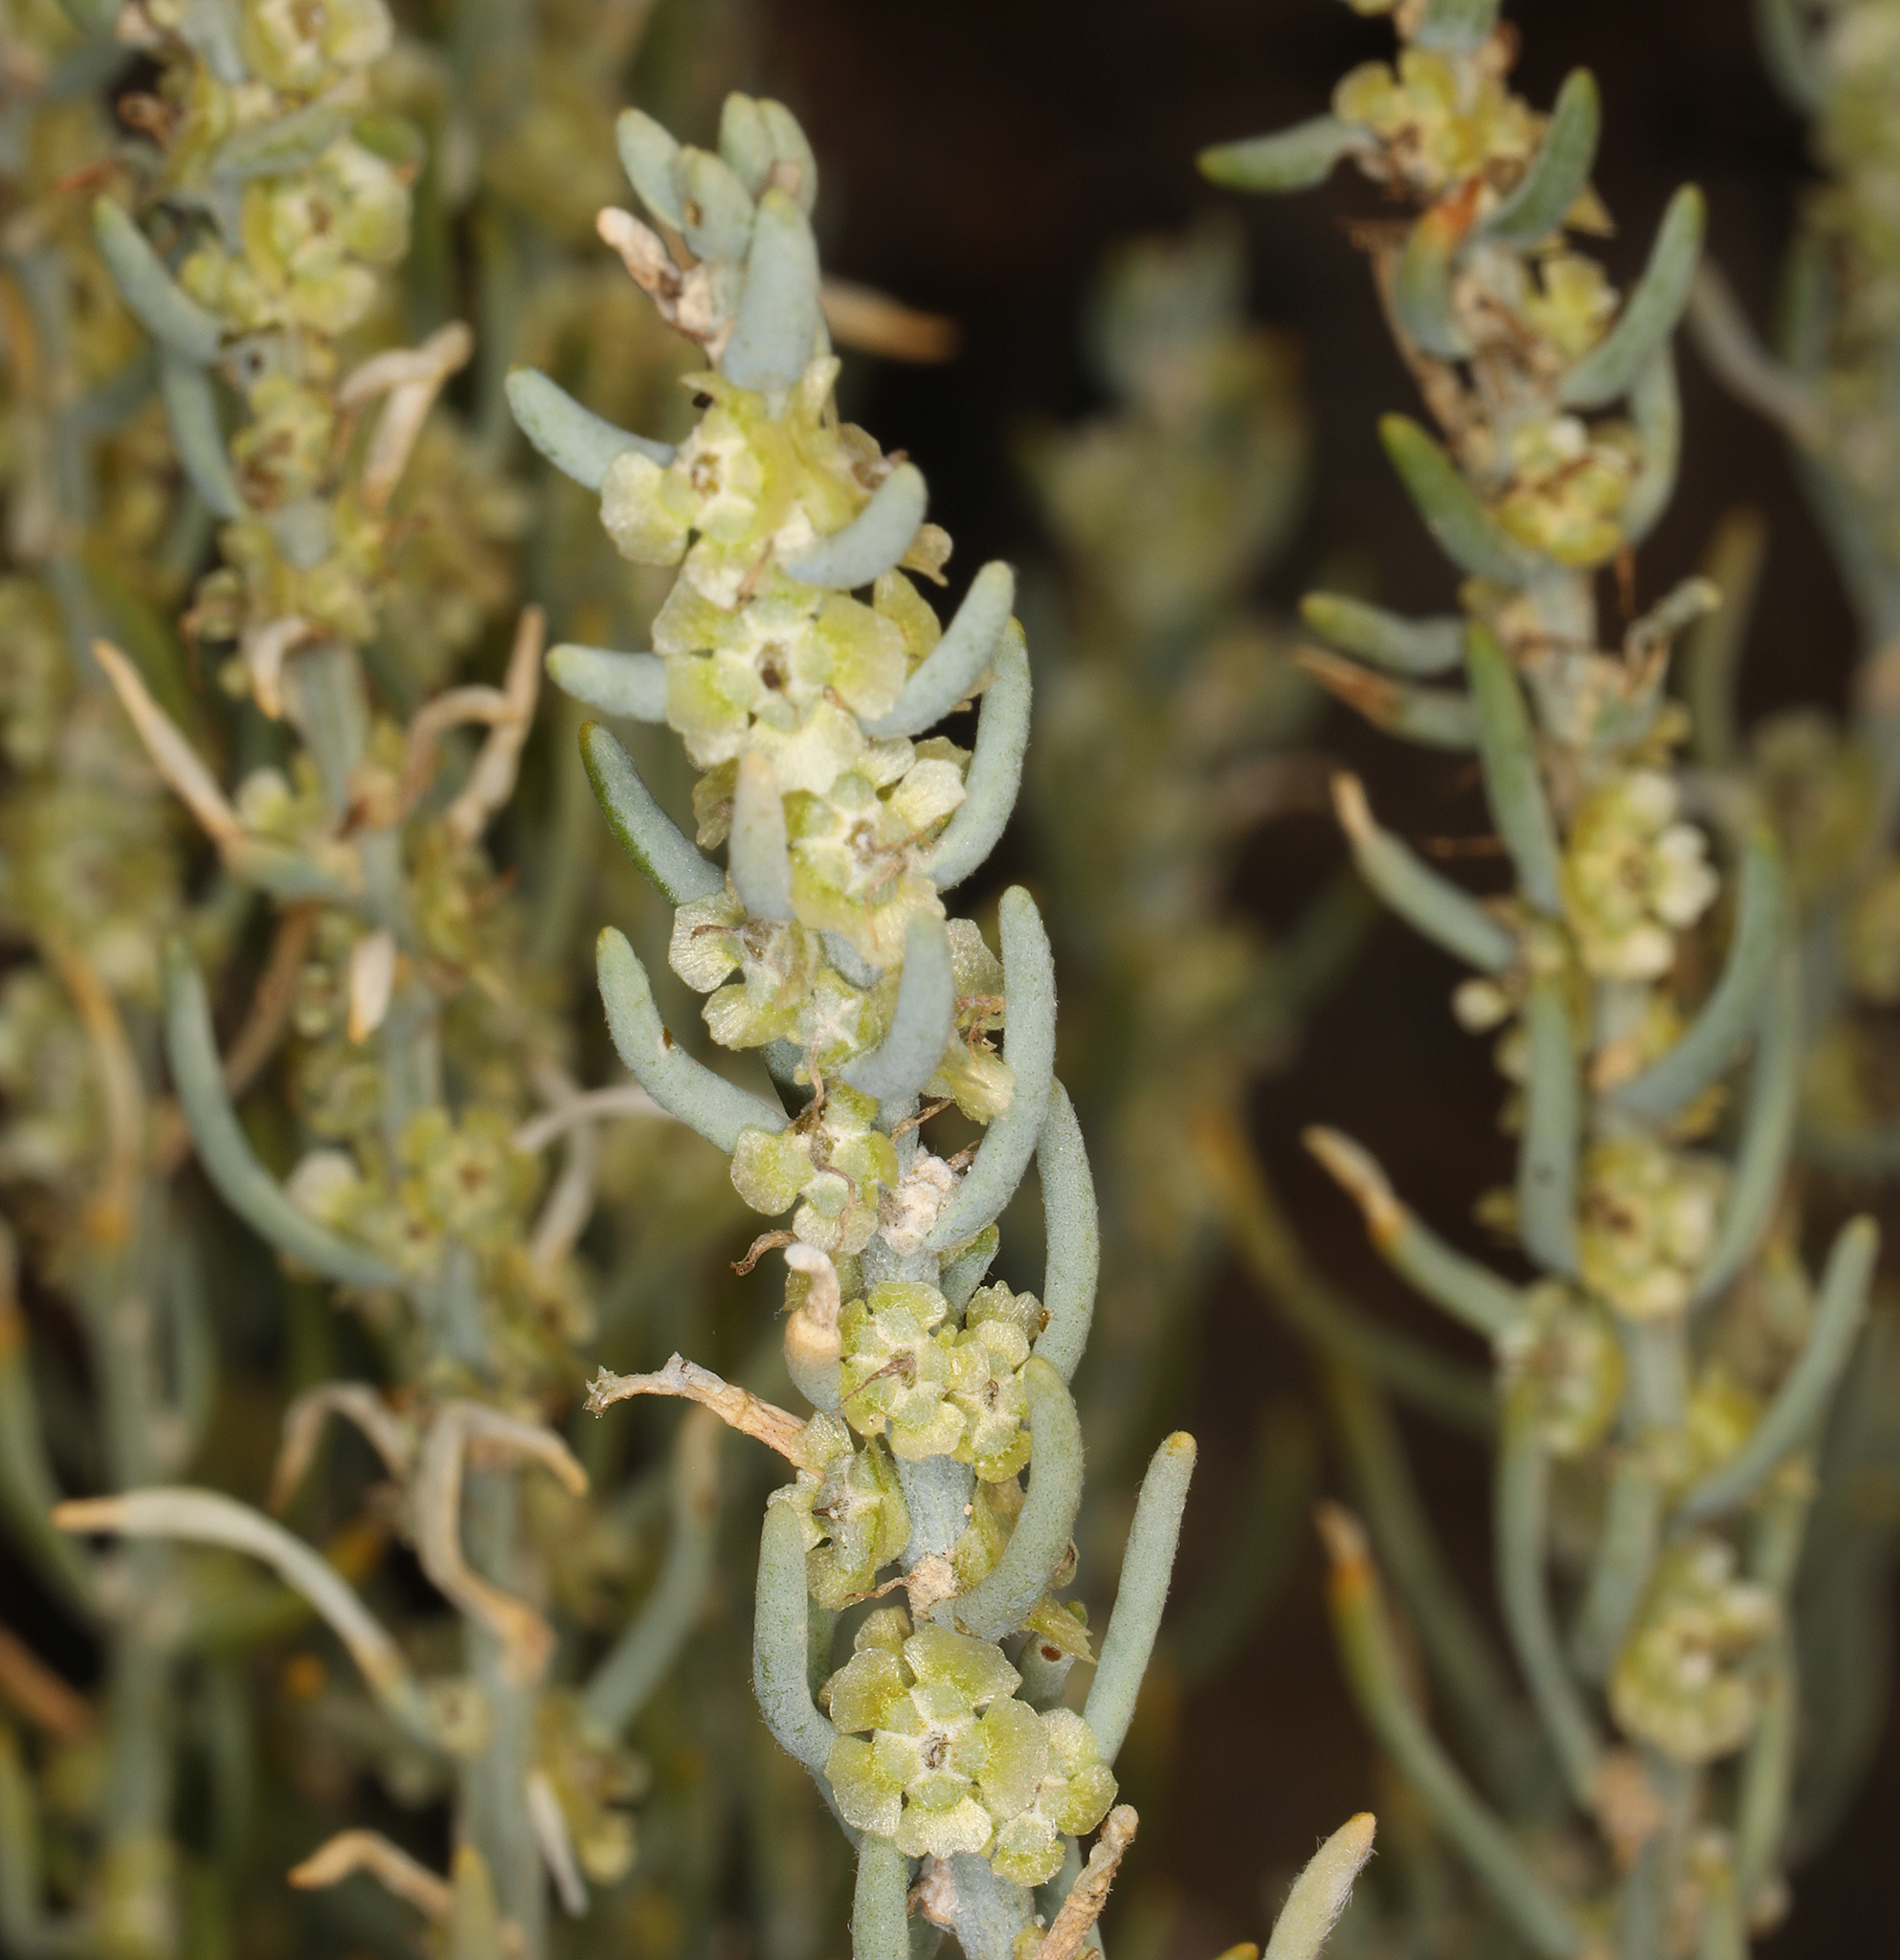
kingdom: Plantae
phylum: Tracheophyta
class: Magnoliopsida
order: Caryophyllales
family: Amaranthaceae
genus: Neokochia
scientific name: Neokochia americana
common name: Perennial summer-cypress
